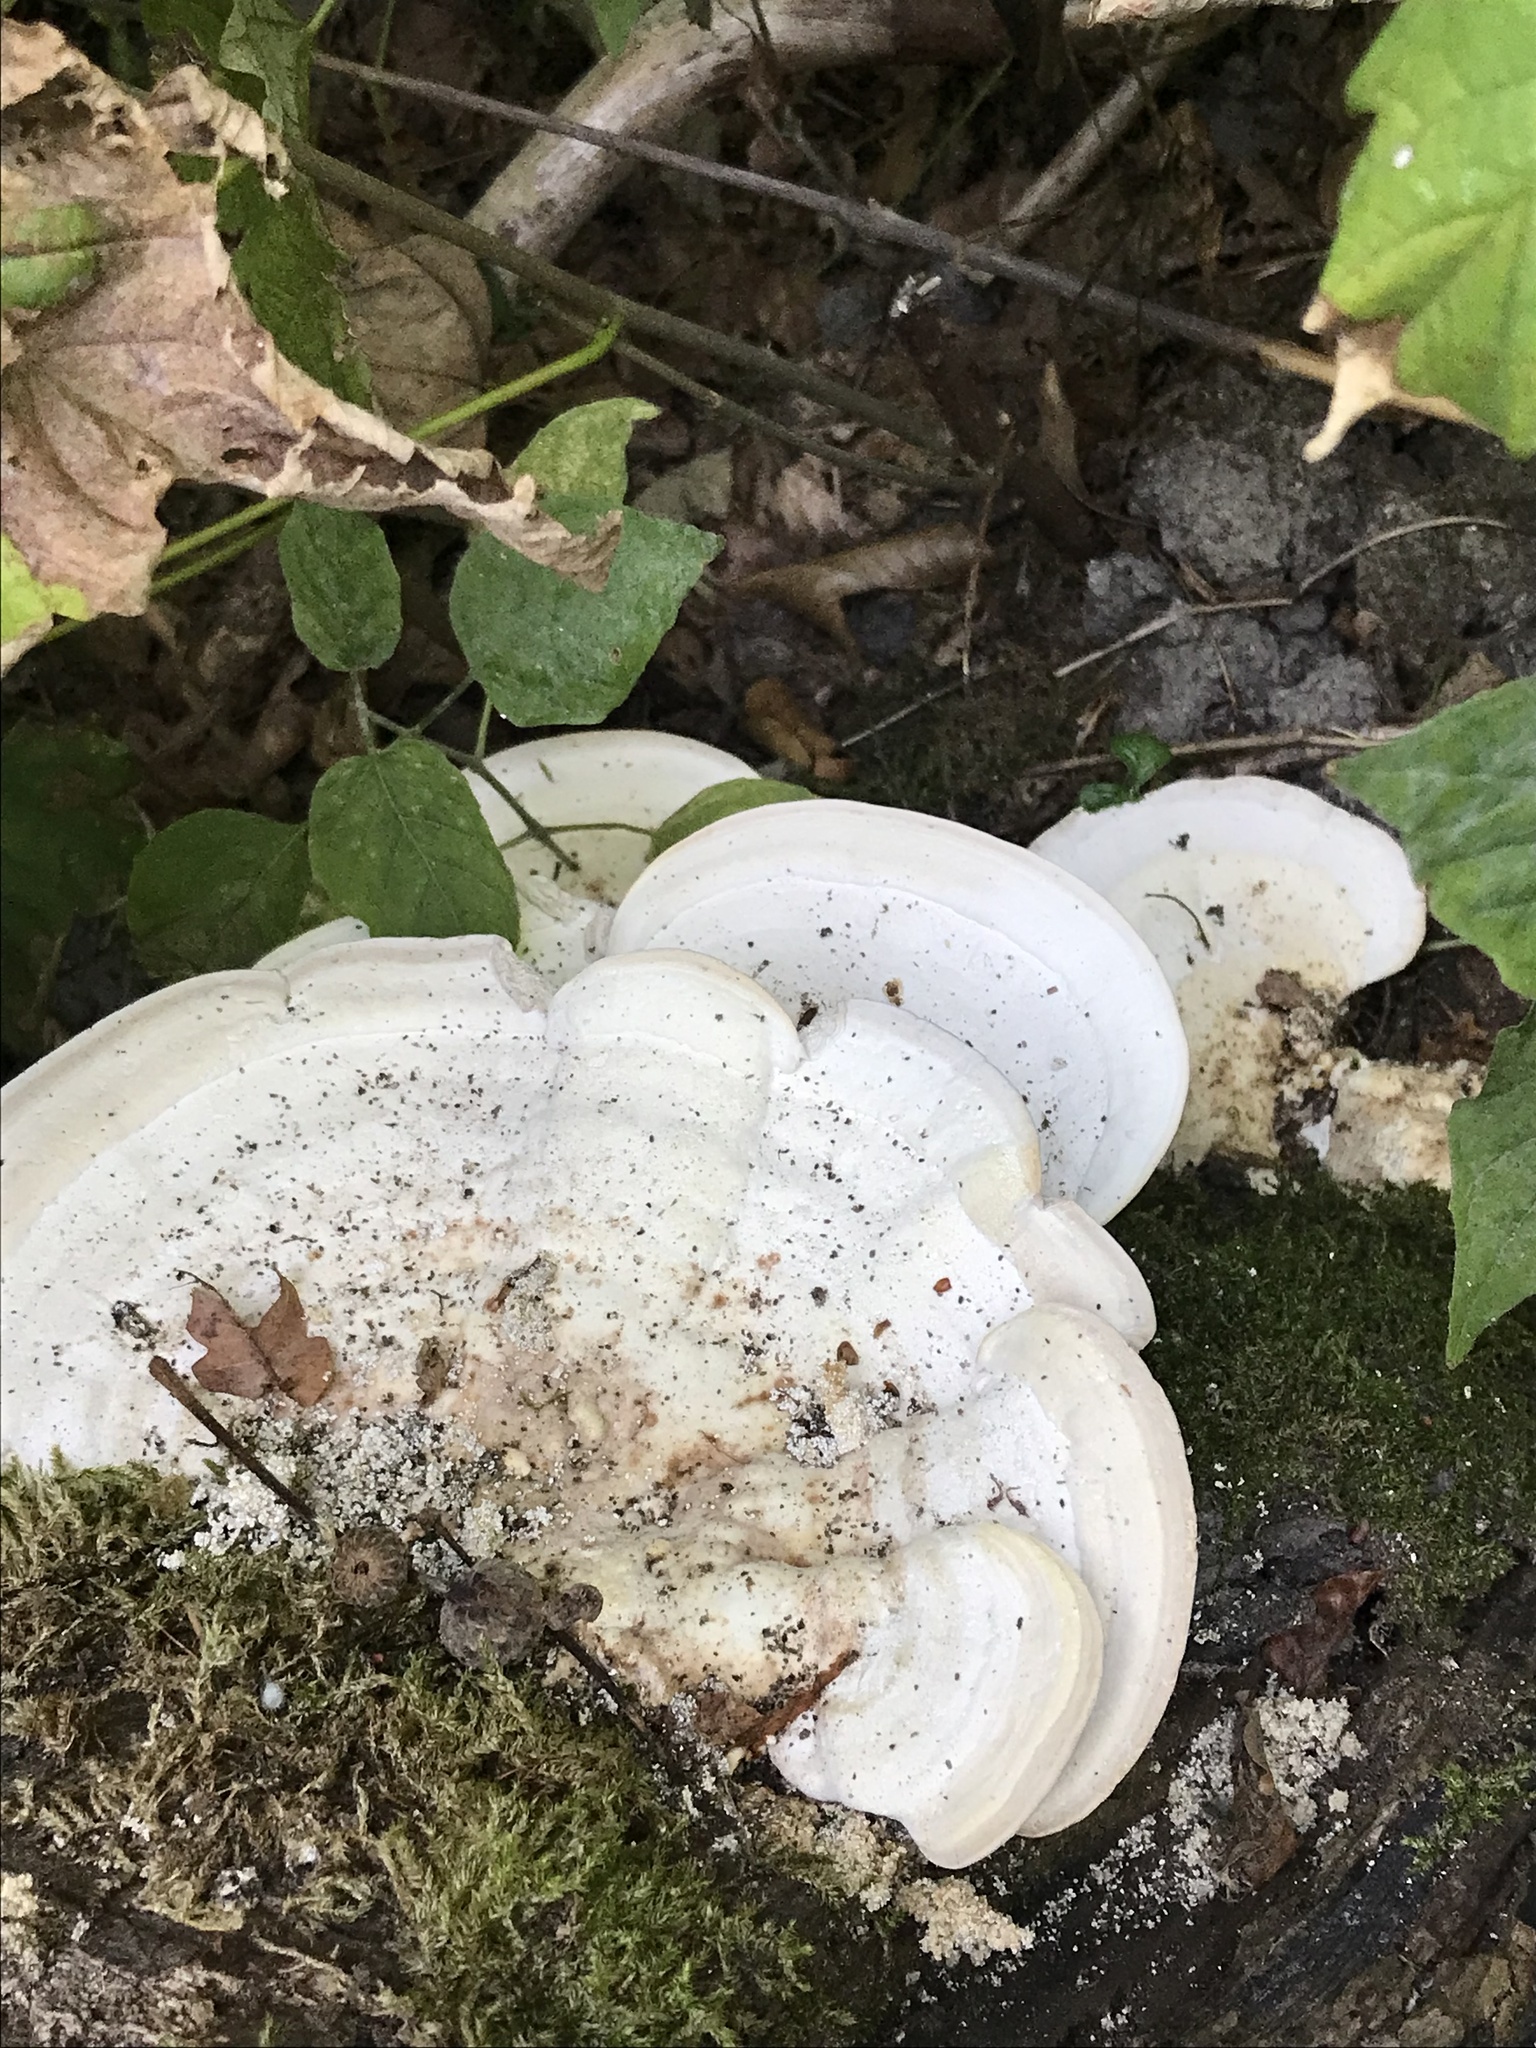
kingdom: Fungi
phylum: Basidiomycota
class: Agaricomycetes
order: Polyporales
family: Polyporaceae
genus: Trametes
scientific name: Trametes gibbosa
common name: Lumpy bracket
